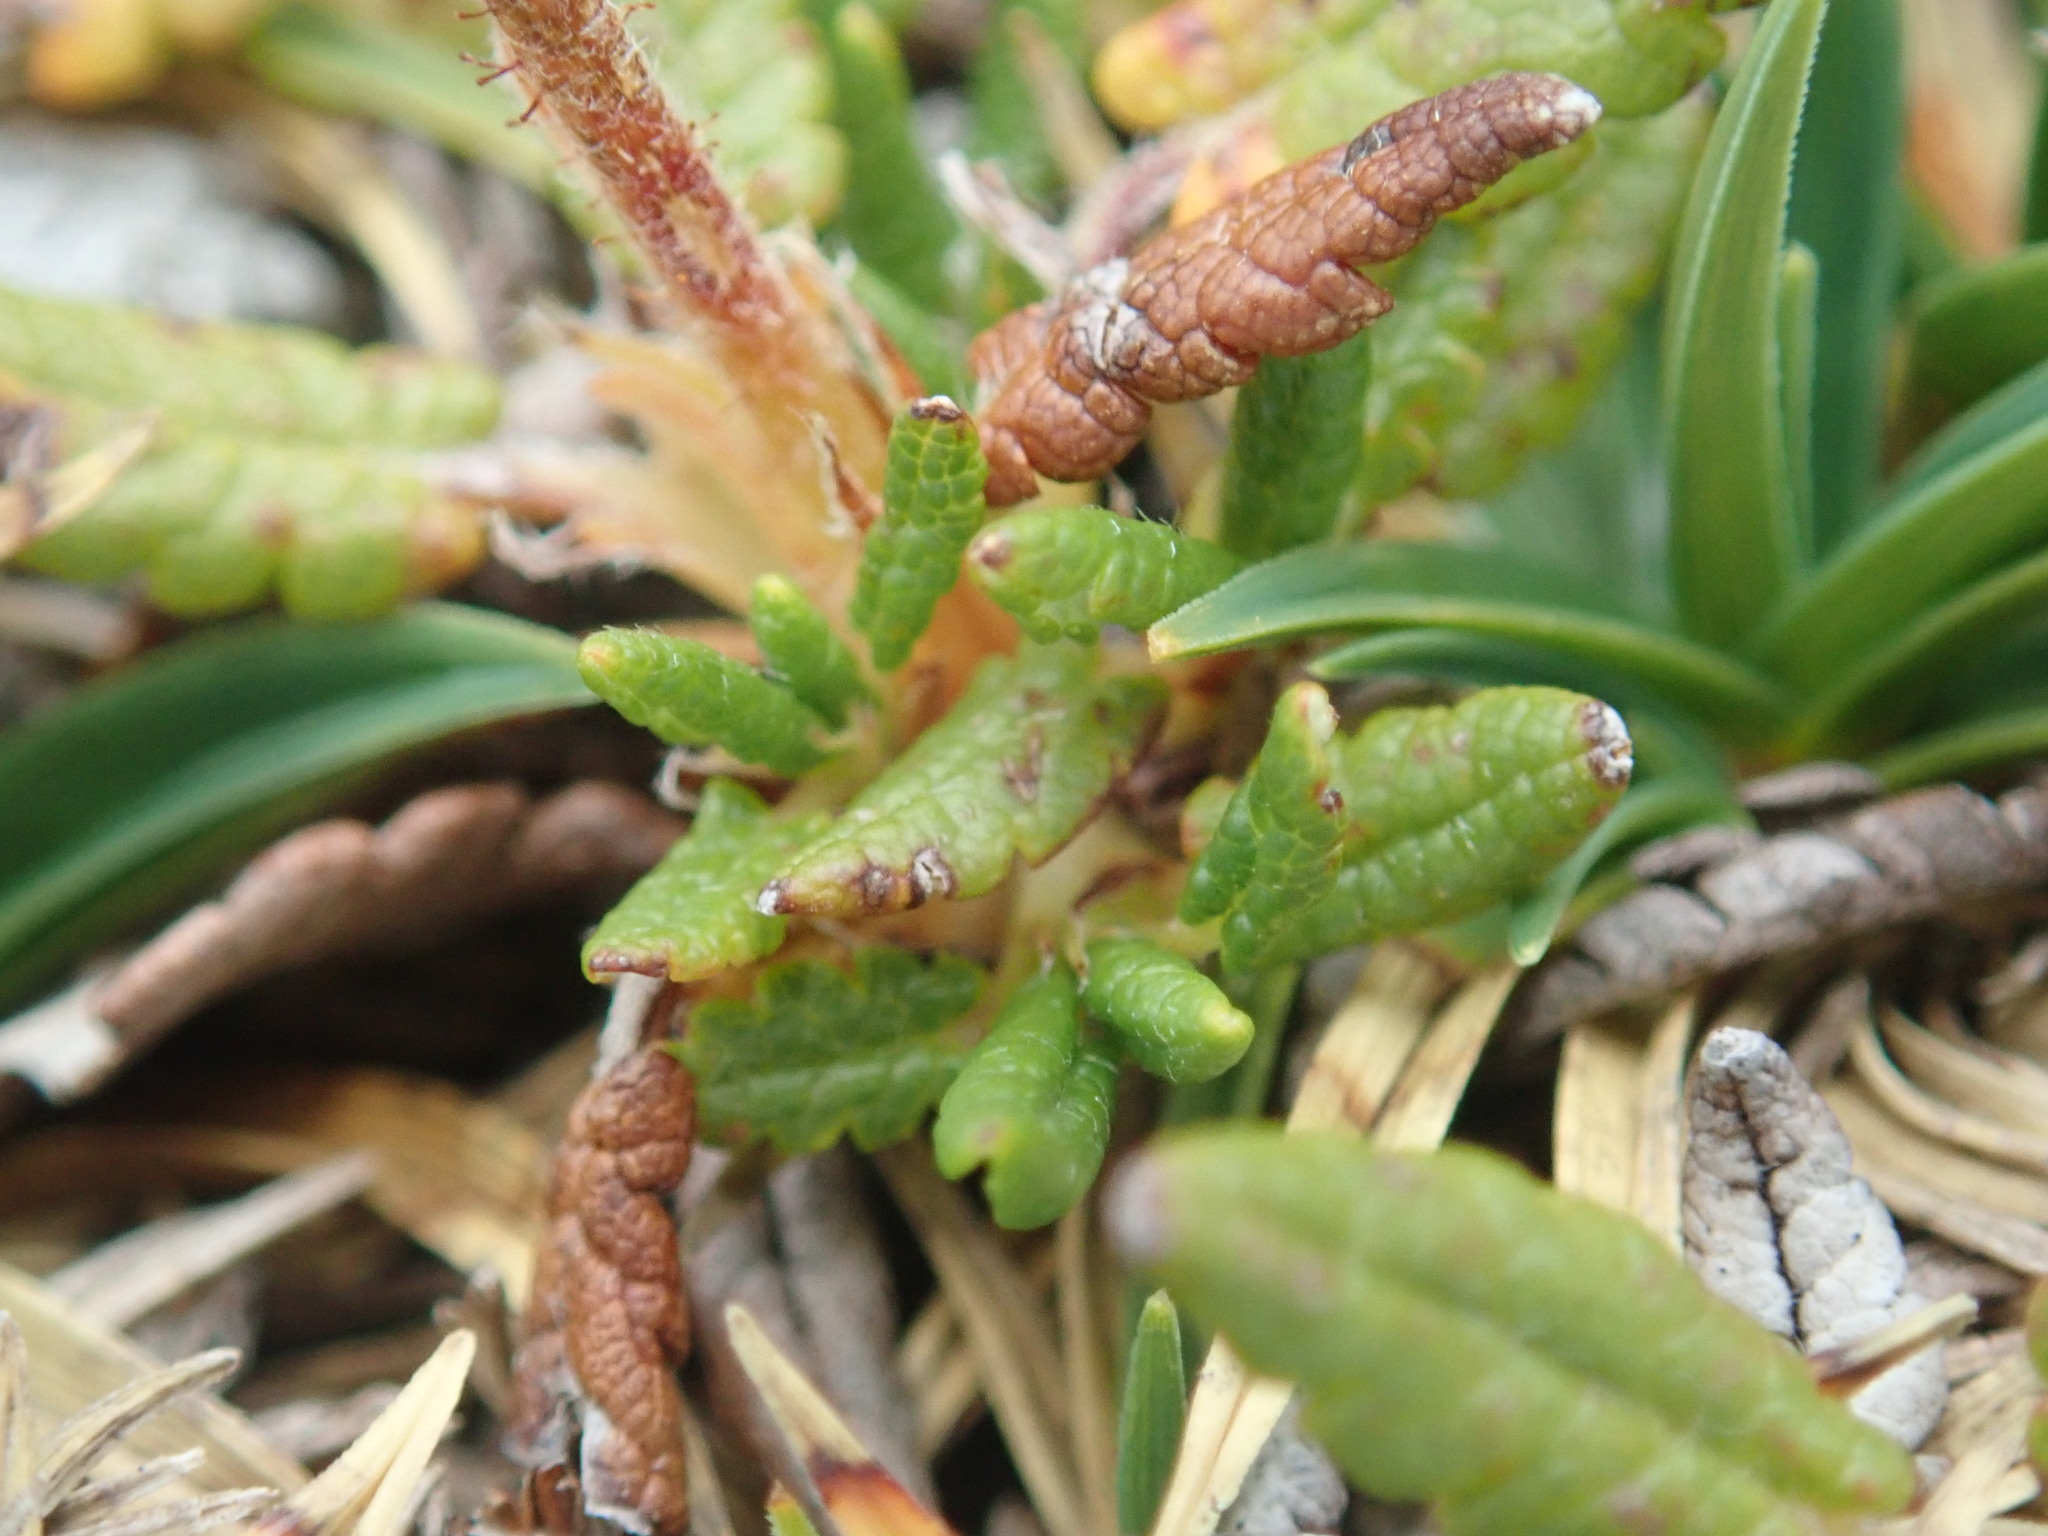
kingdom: Plantae
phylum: Tracheophyta
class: Magnoliopsida
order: Rosales
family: Rosaceae
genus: Dryas
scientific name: Dryas octopetala
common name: Eight-petal mountain-avens
